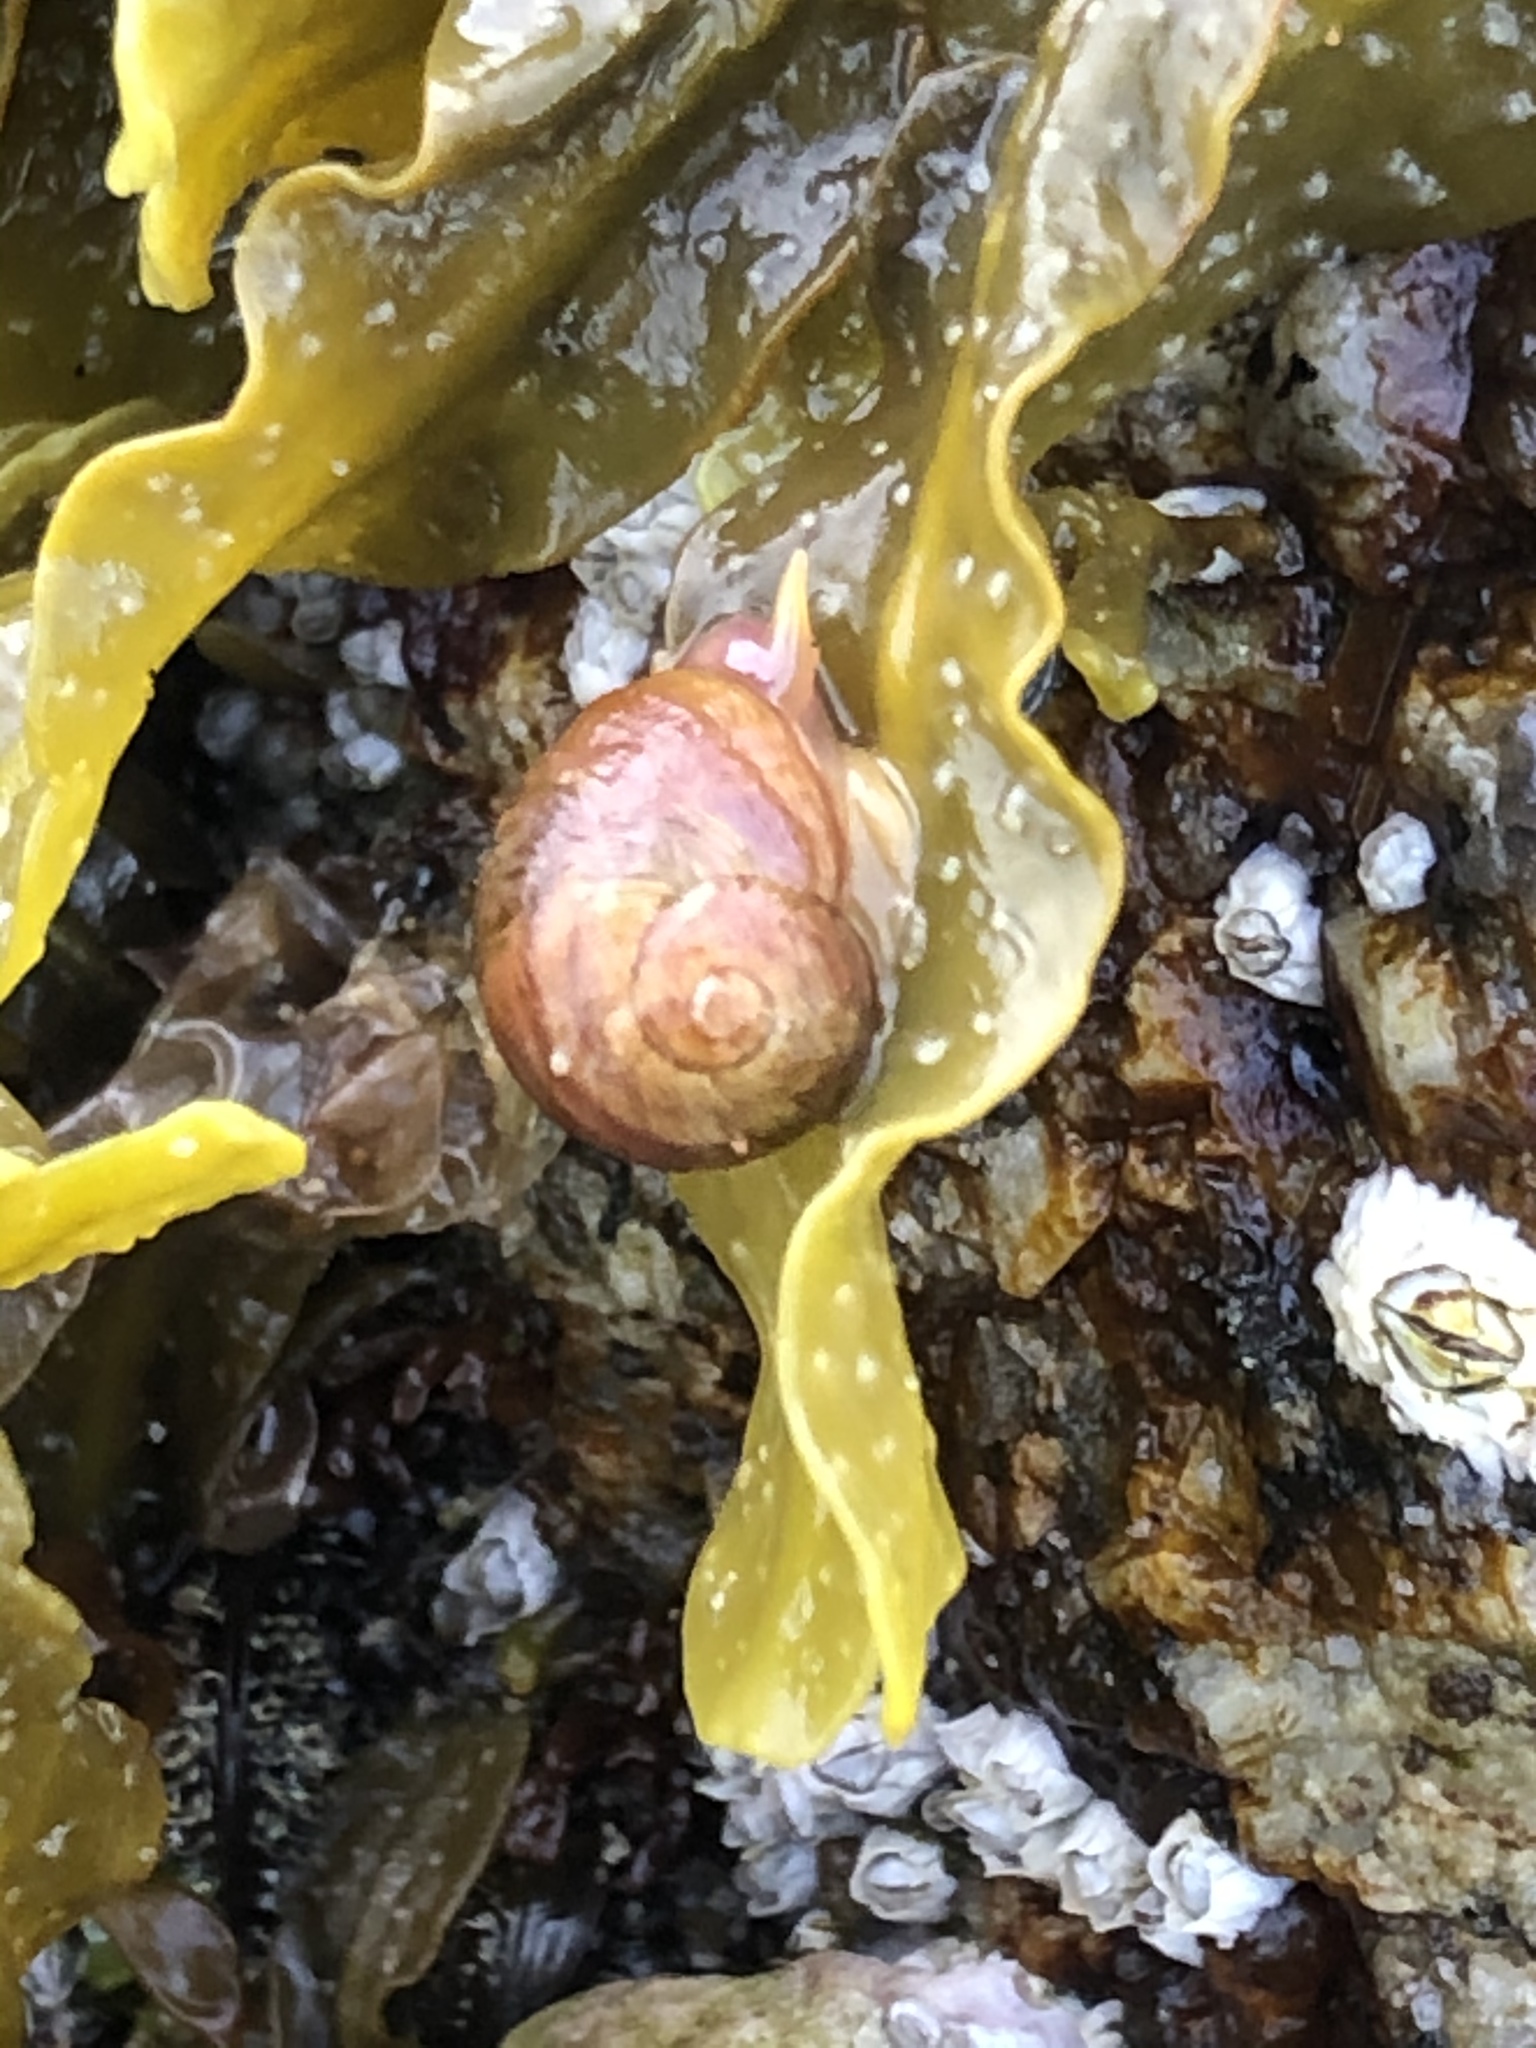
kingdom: Animalia
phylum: Mollusca
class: Gastropoda
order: Littorinimorpha
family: Littorinidae
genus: Littorina
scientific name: Littorina obtusata
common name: Flat periwinkle
